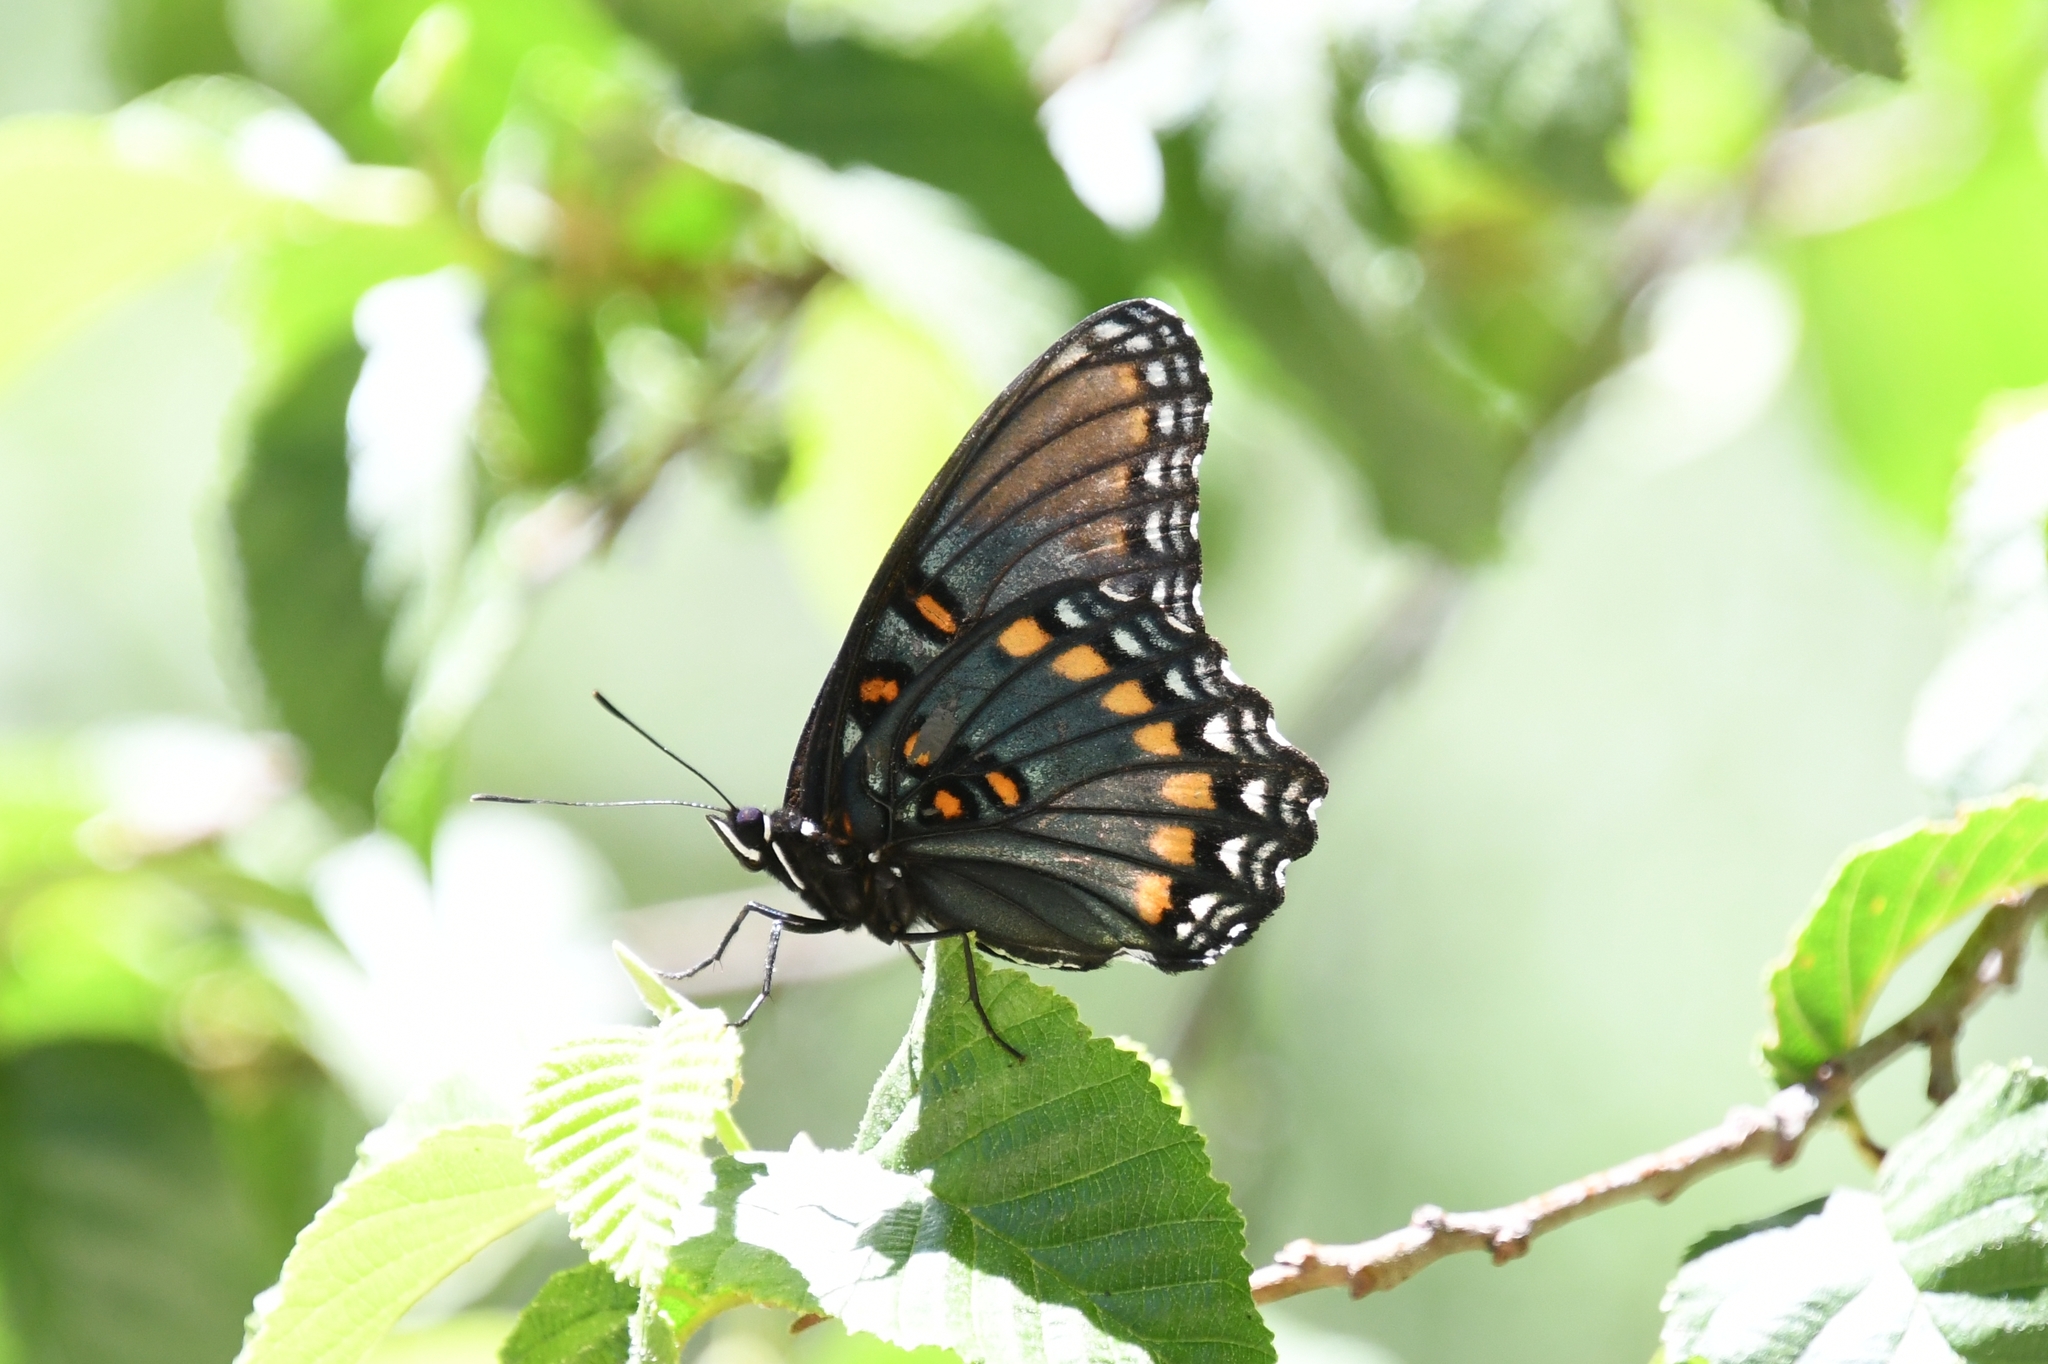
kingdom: Animalia
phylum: Arthropoda
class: Insecta
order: Lepidoptera
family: Nymphalidae
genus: Limenitis
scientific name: Limenitis arthemis
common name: Red-spotted admiral
